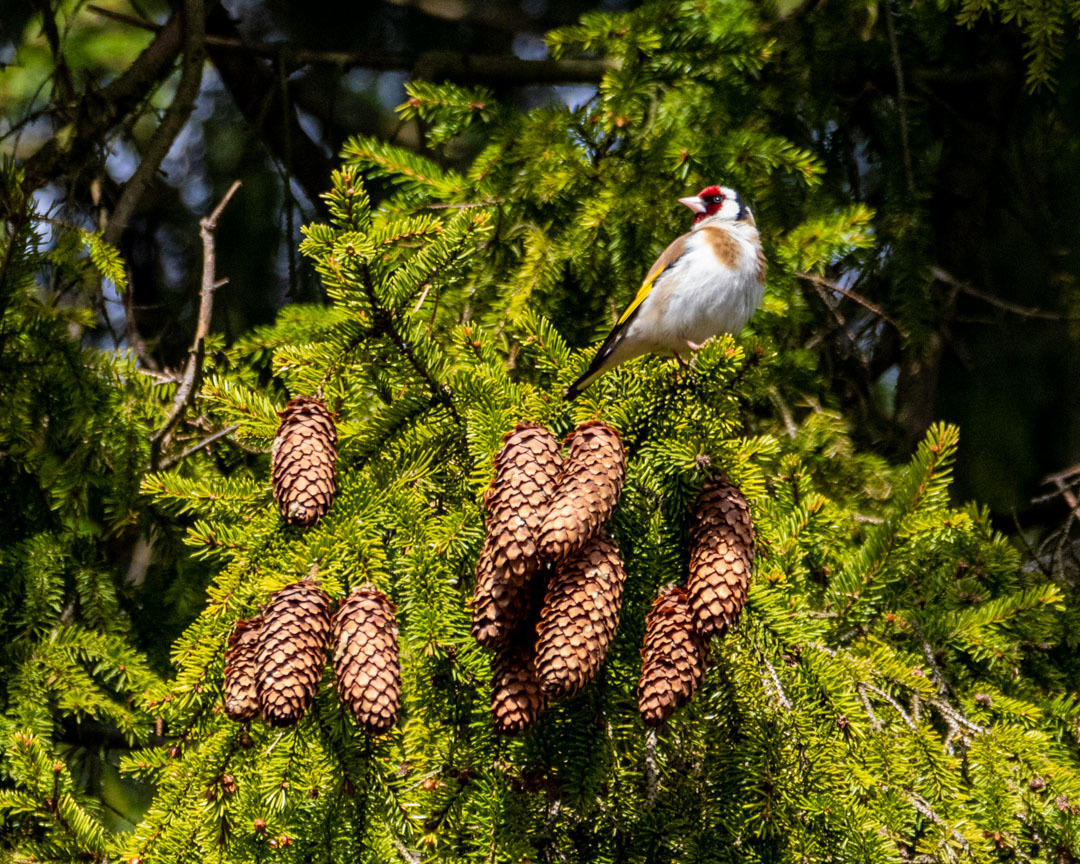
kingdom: Animalia
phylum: Chordata
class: Aves
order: Passeriformes
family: Fringillidae
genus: Carduelis
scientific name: Carduelis carduelis
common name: European goldfinch
